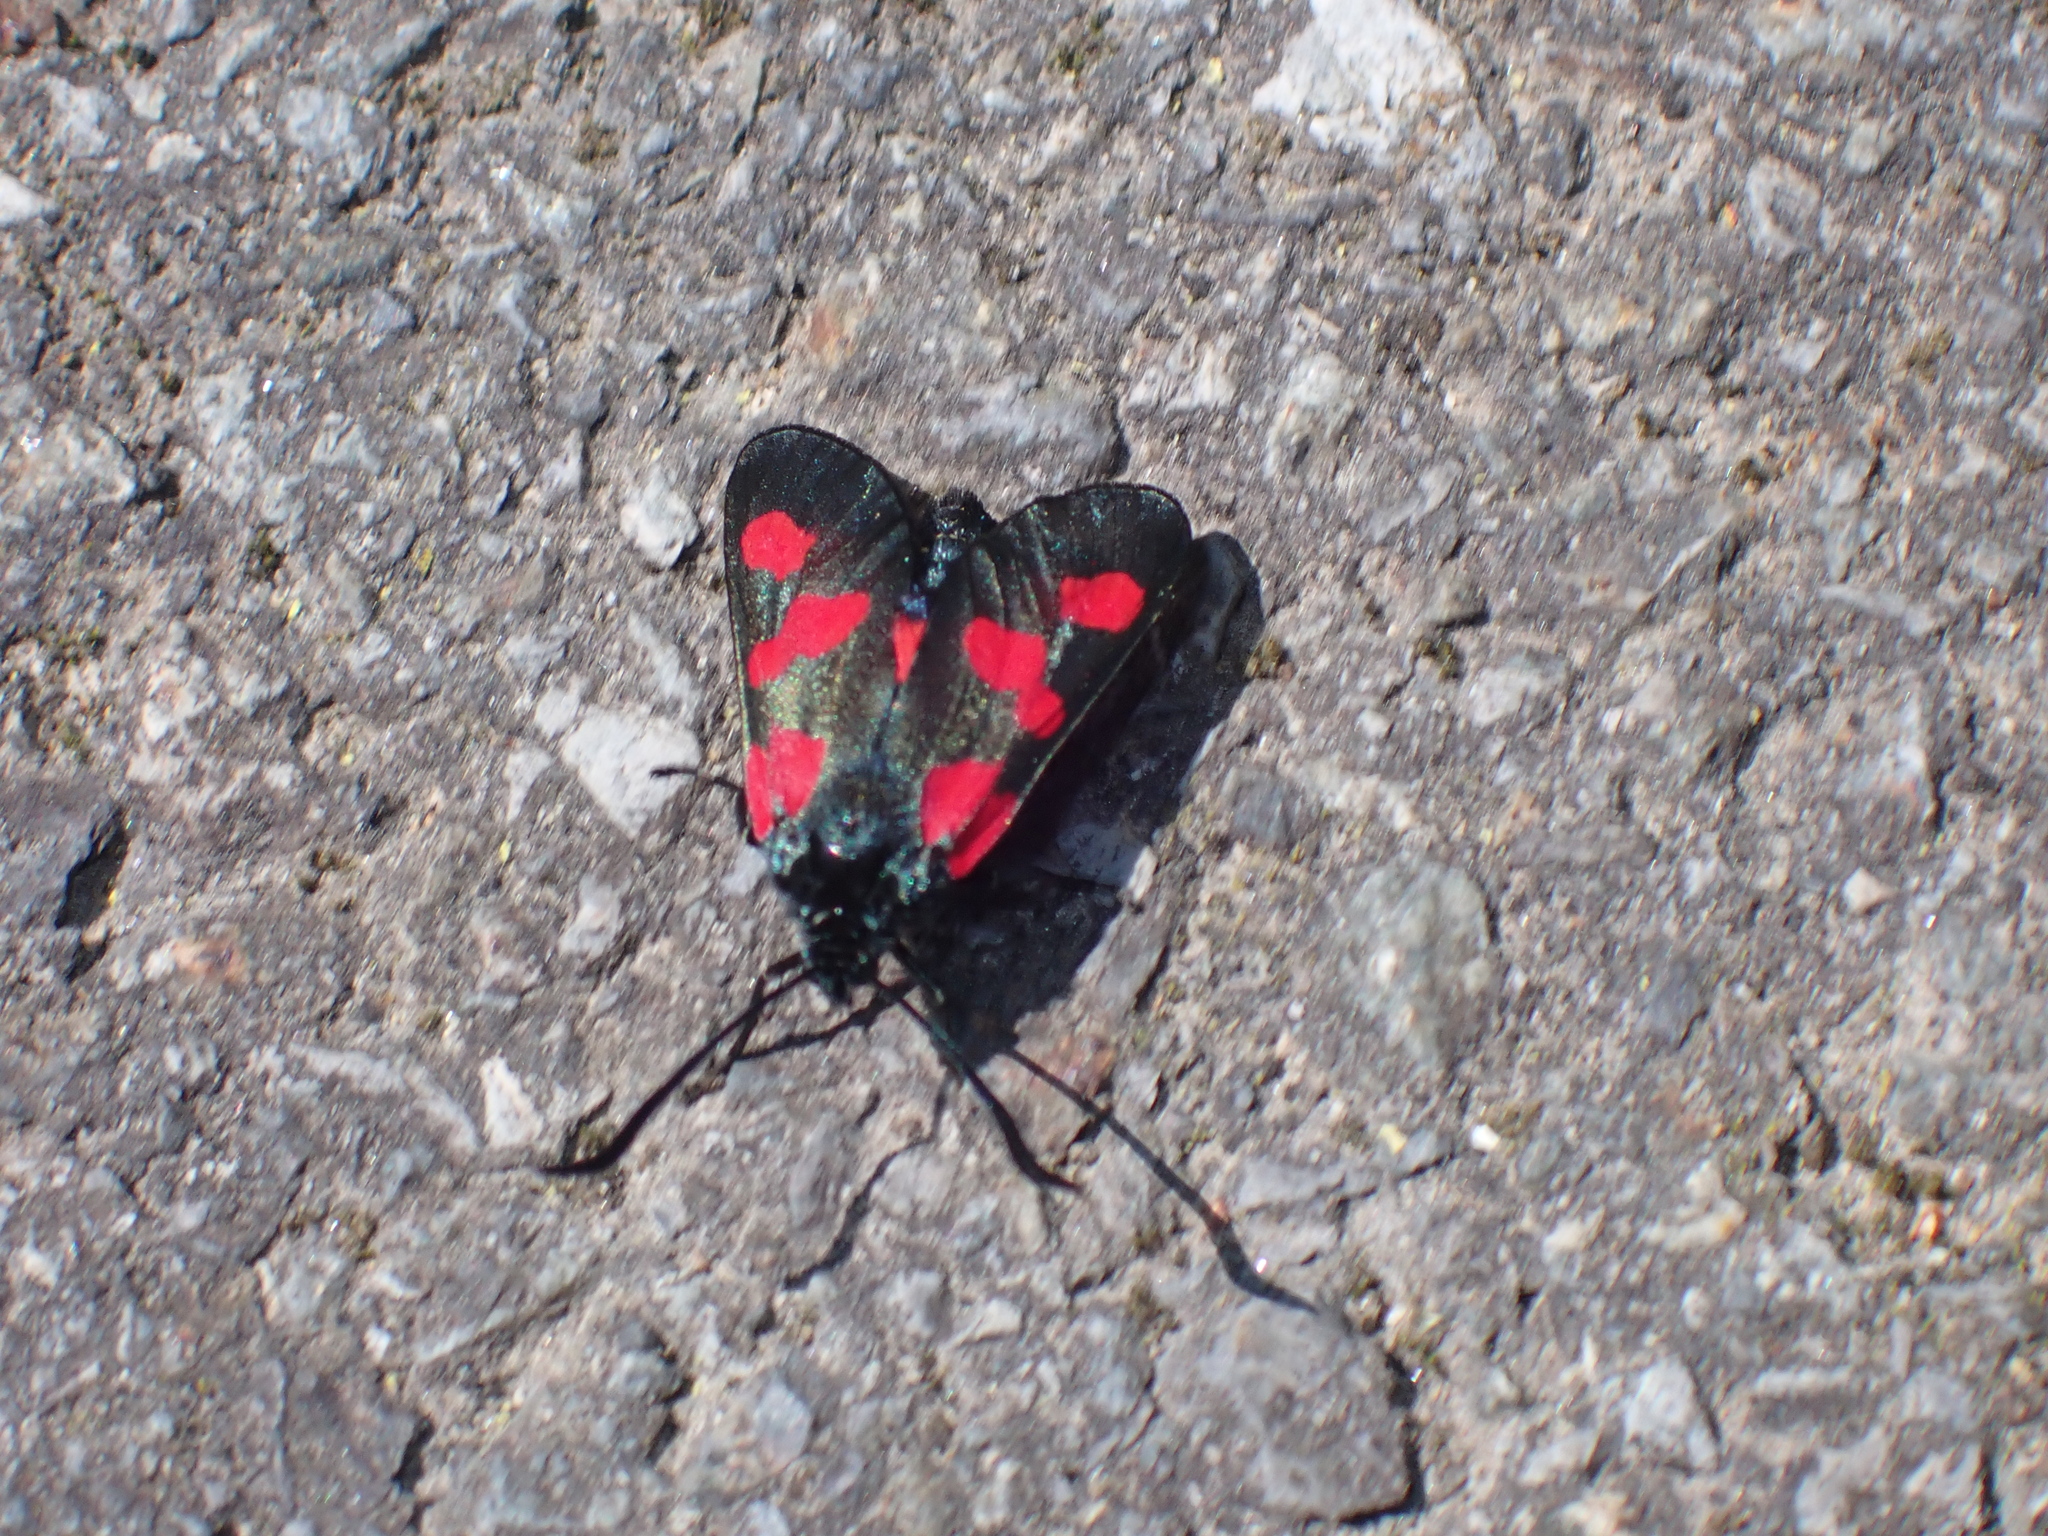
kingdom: Animalia
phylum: Arthropoda
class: Insecta
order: Lepidoptera
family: Zygaenidae
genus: Zygaena
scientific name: Zygaena trifolii
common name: Five-spot burnet
